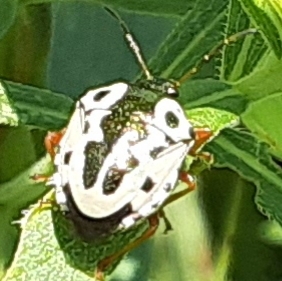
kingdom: Animalia
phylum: Arthropoda
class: Insecta
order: Hemiptera
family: Pentatomidae
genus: Stiretrus
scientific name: Stiretrus anchorago
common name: Anchor stink bug
